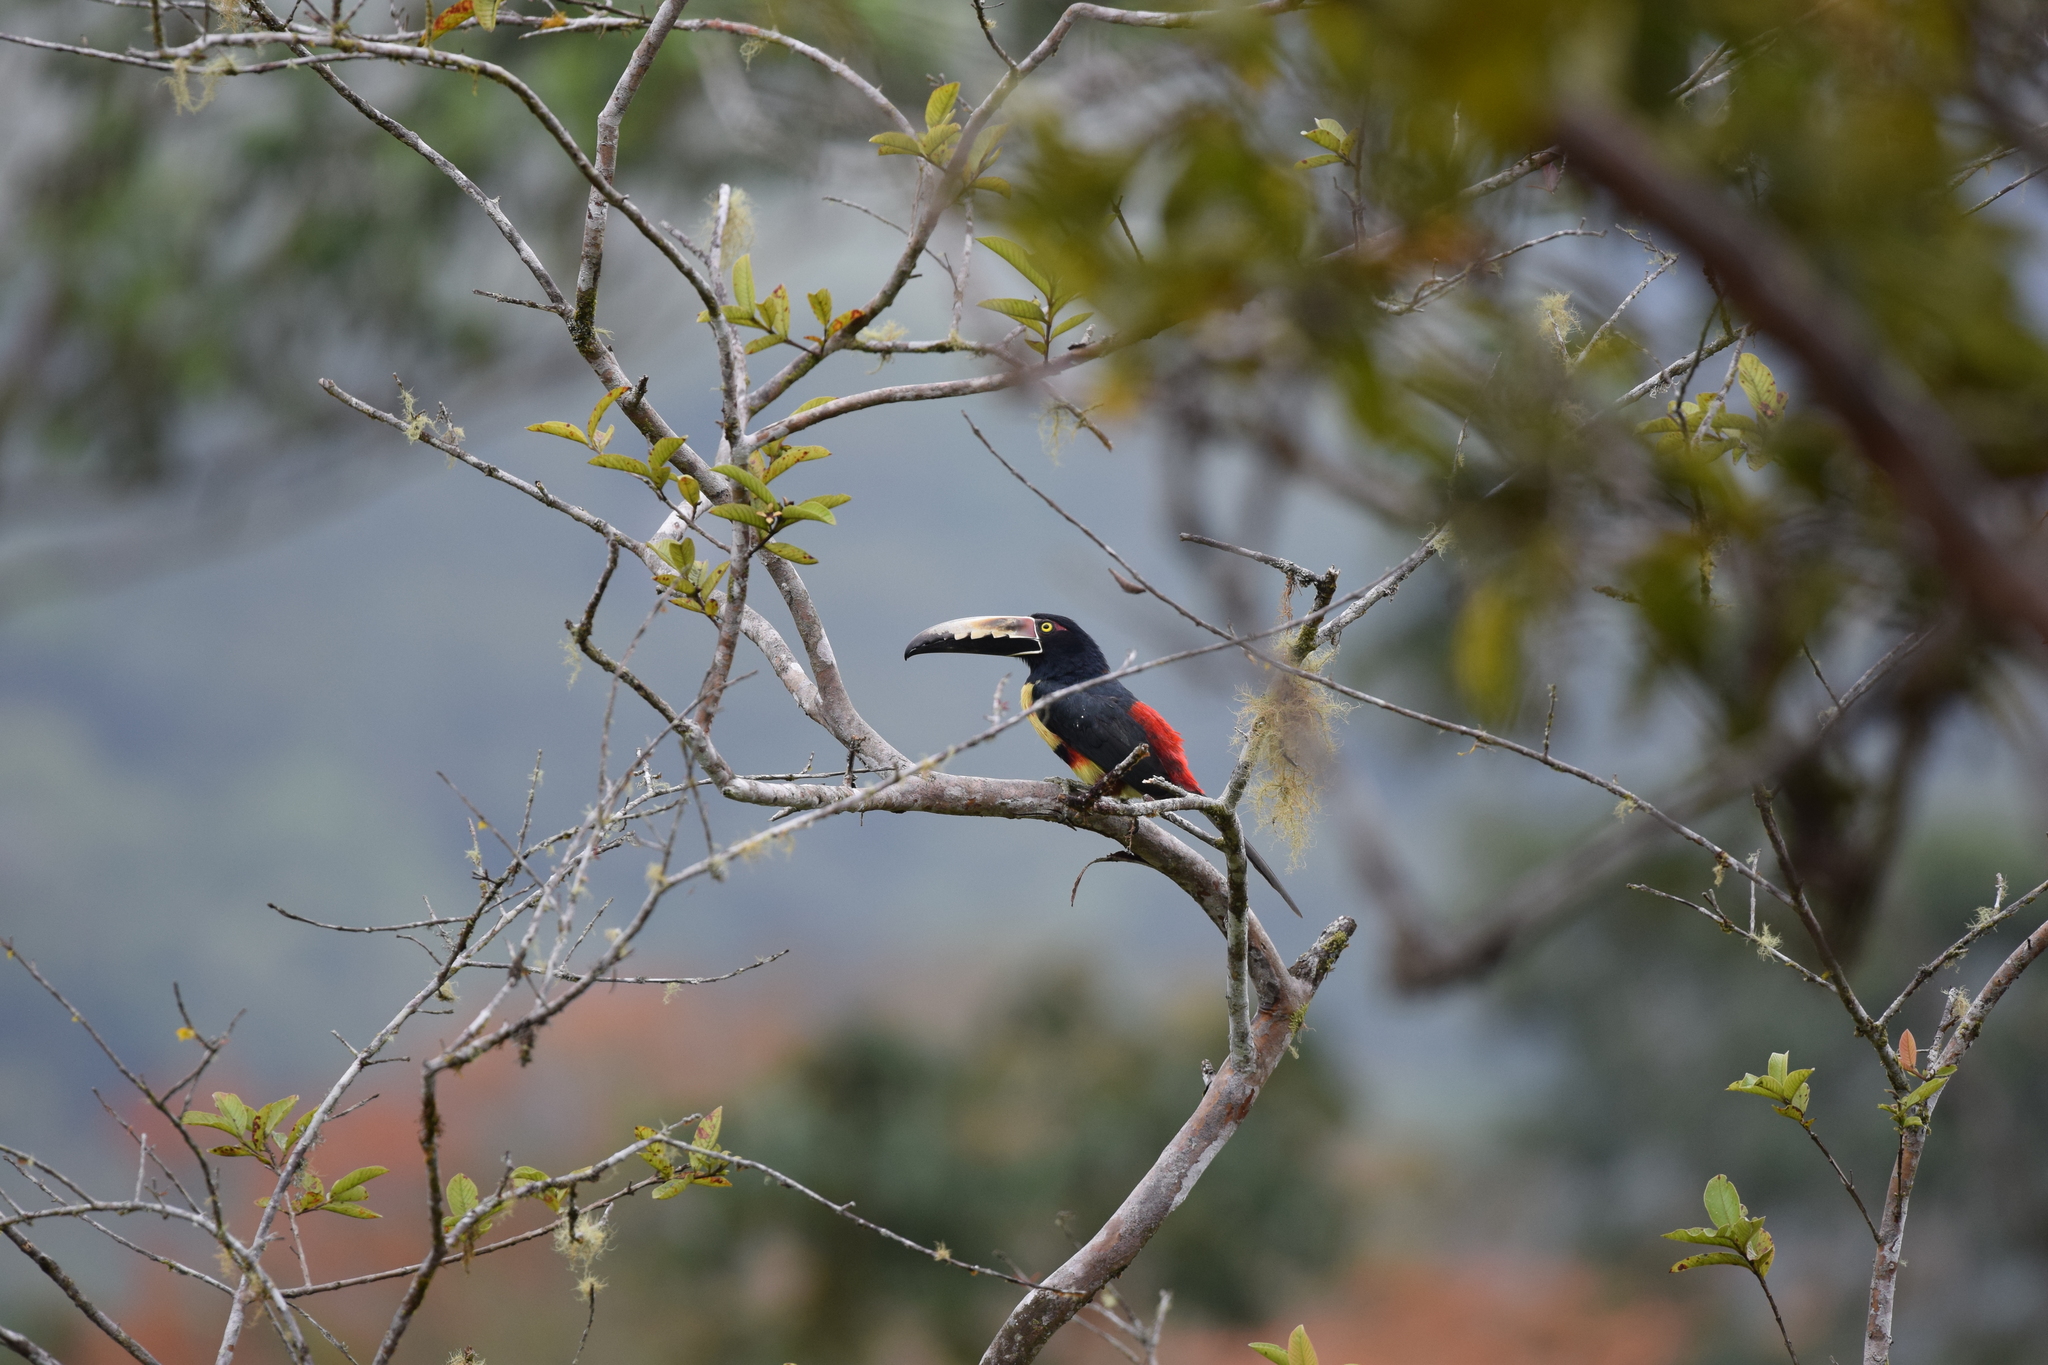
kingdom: Animalia
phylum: Chordata
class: Aves
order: Piciformes
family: Ramphastidae
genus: Pteroglossus
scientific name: Pteroglossus torquatus
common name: Collared aracari
